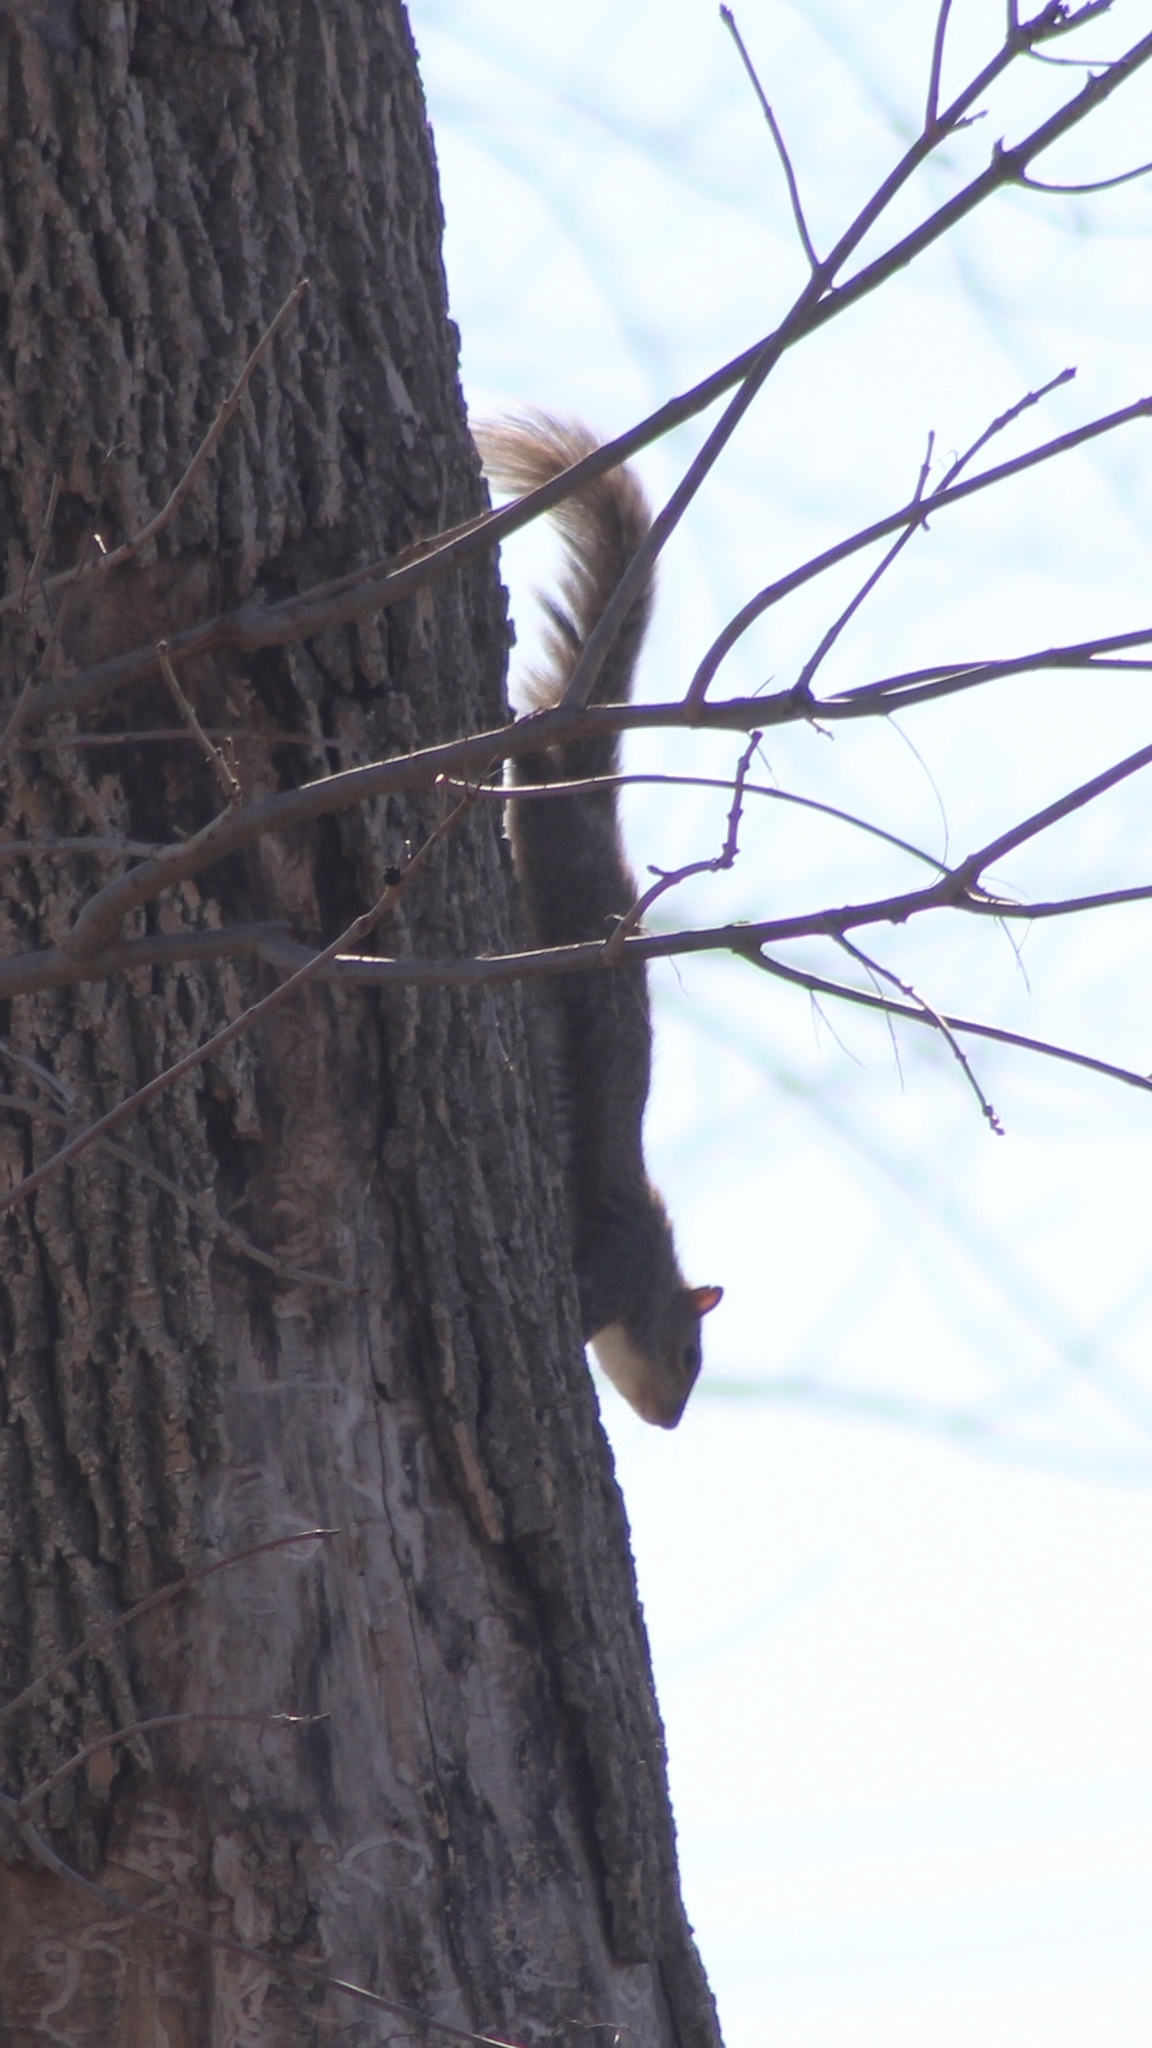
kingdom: Animalia
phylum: Chordata
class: Mammalia
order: Rodentia
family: Sciuridae
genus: Sciurus
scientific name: Sciurus carolinensis
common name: Eastern gray squirrel
